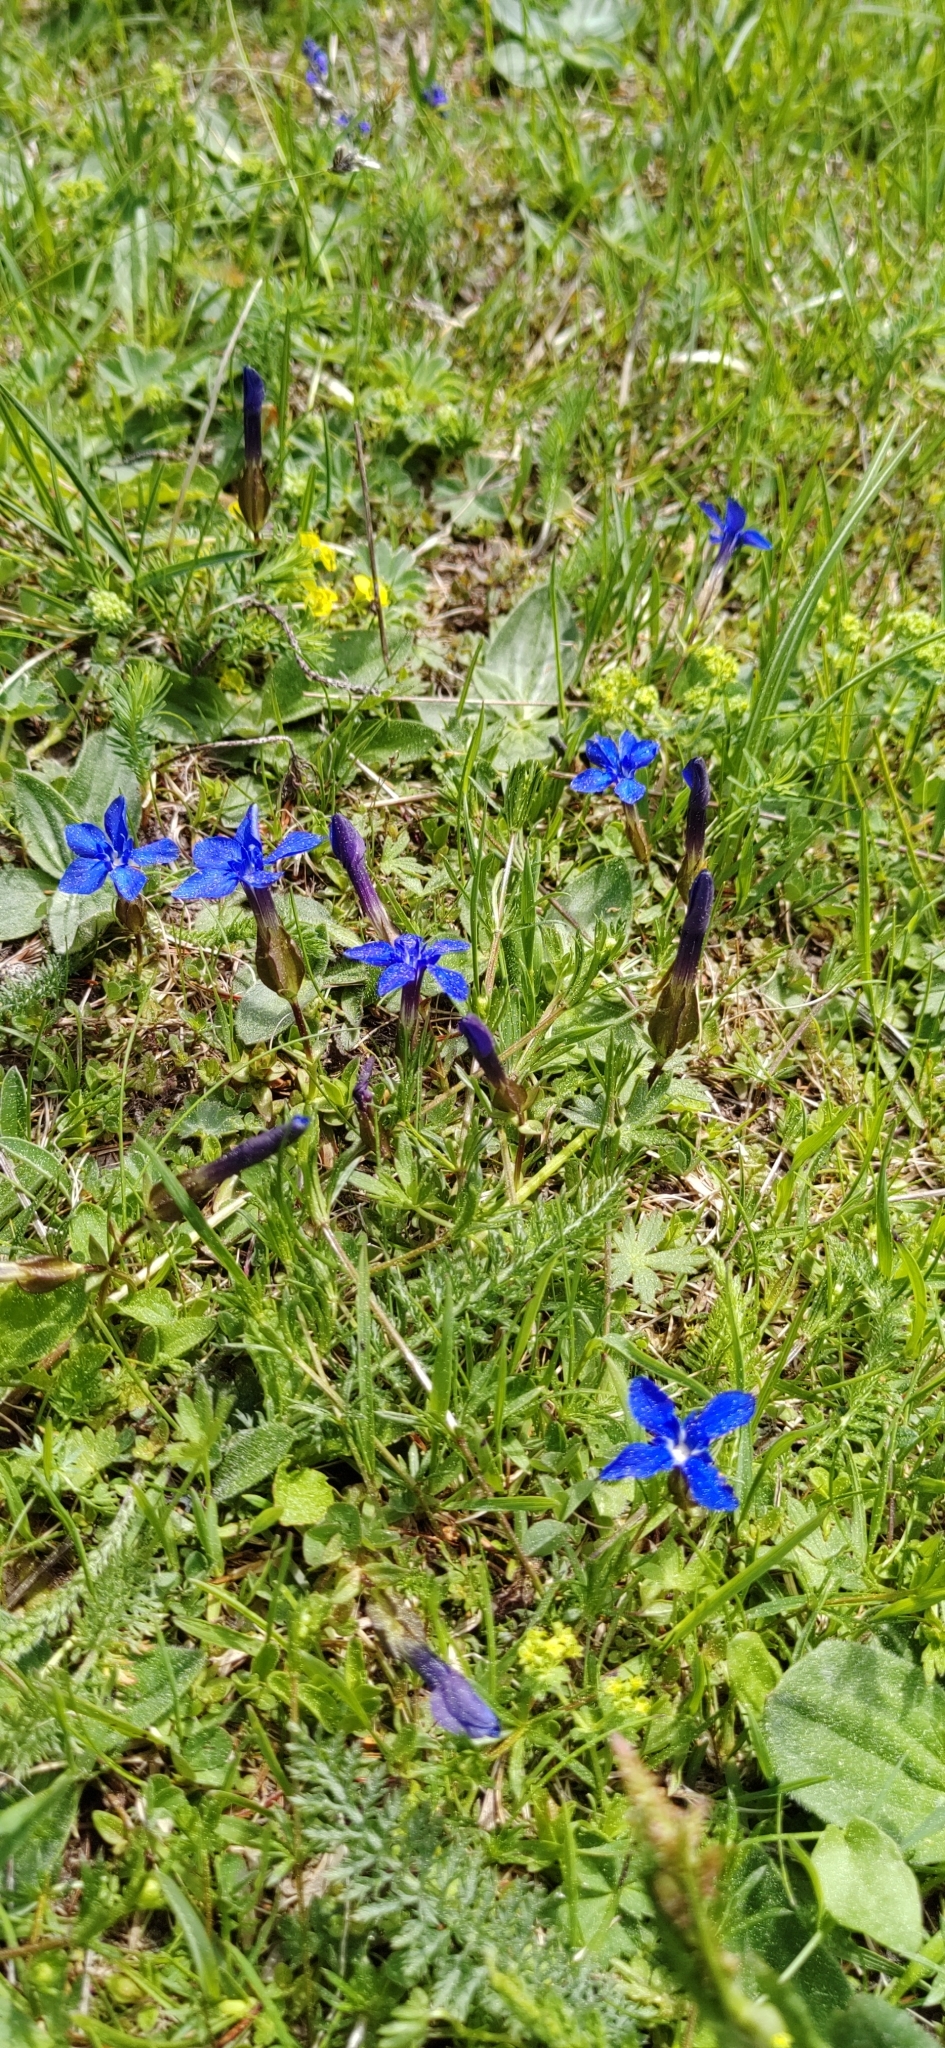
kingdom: Plantae
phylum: Tracheophyta
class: Magnoliopsida
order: Gentianales
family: Gentianaceae
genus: Gentiana
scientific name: Gentiana verna
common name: Spring gentian
